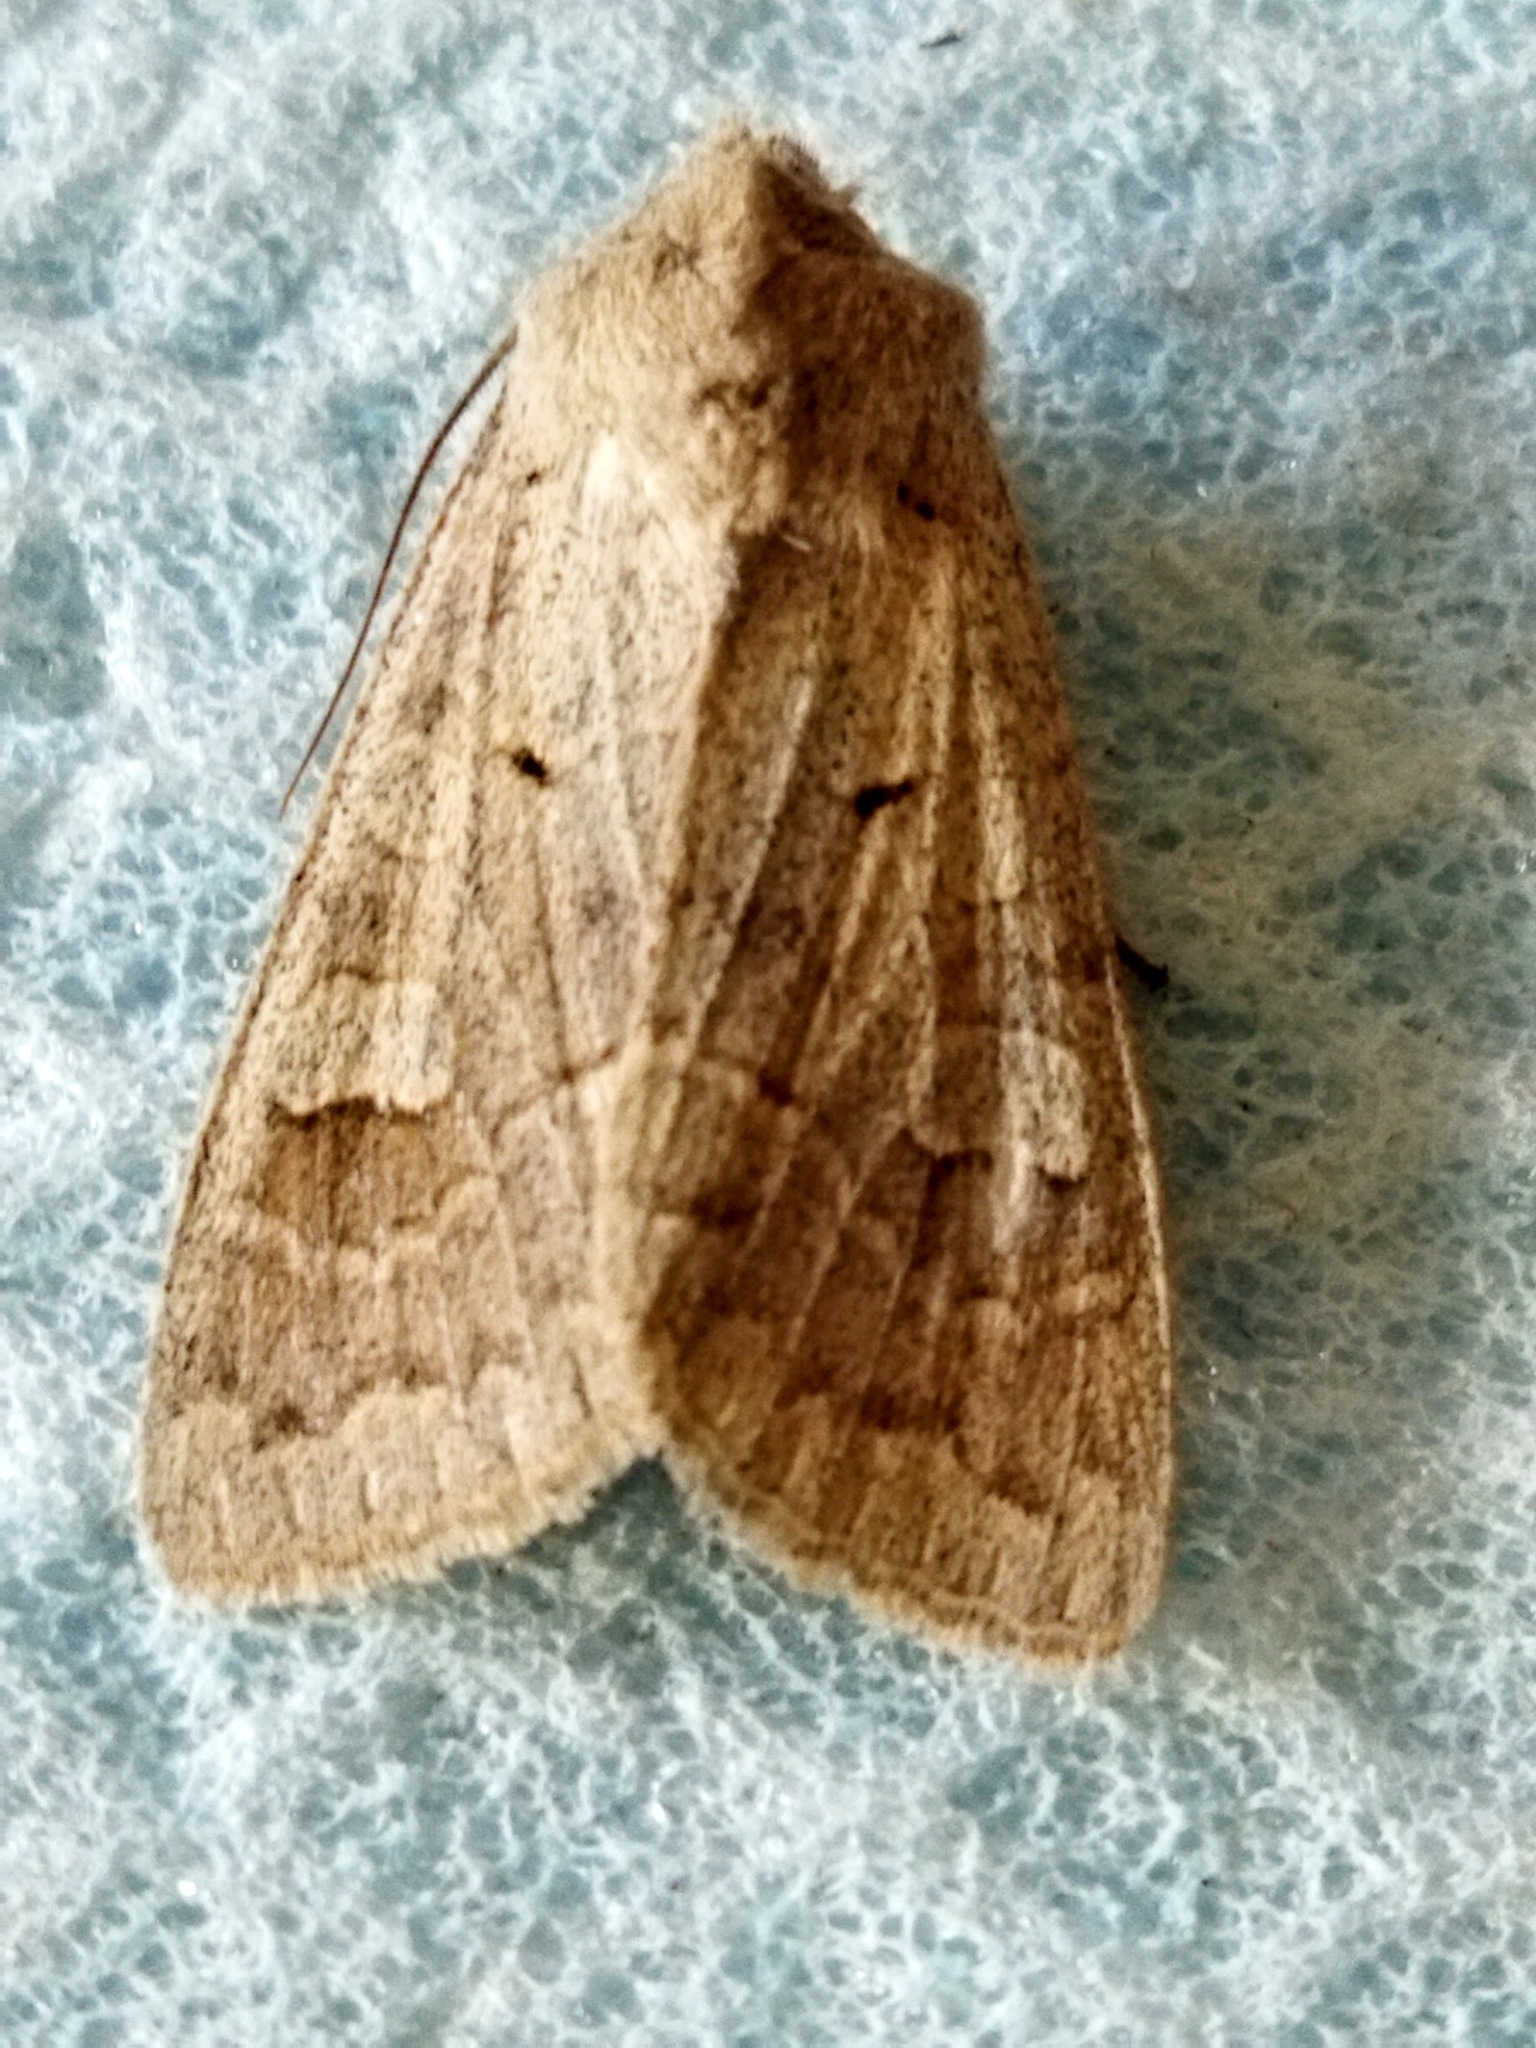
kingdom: Animalia
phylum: Arthropoda
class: Insecta
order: Lepidoptera
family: Noctuidae
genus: Ammoconia
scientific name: Ammoconia caecimacula
